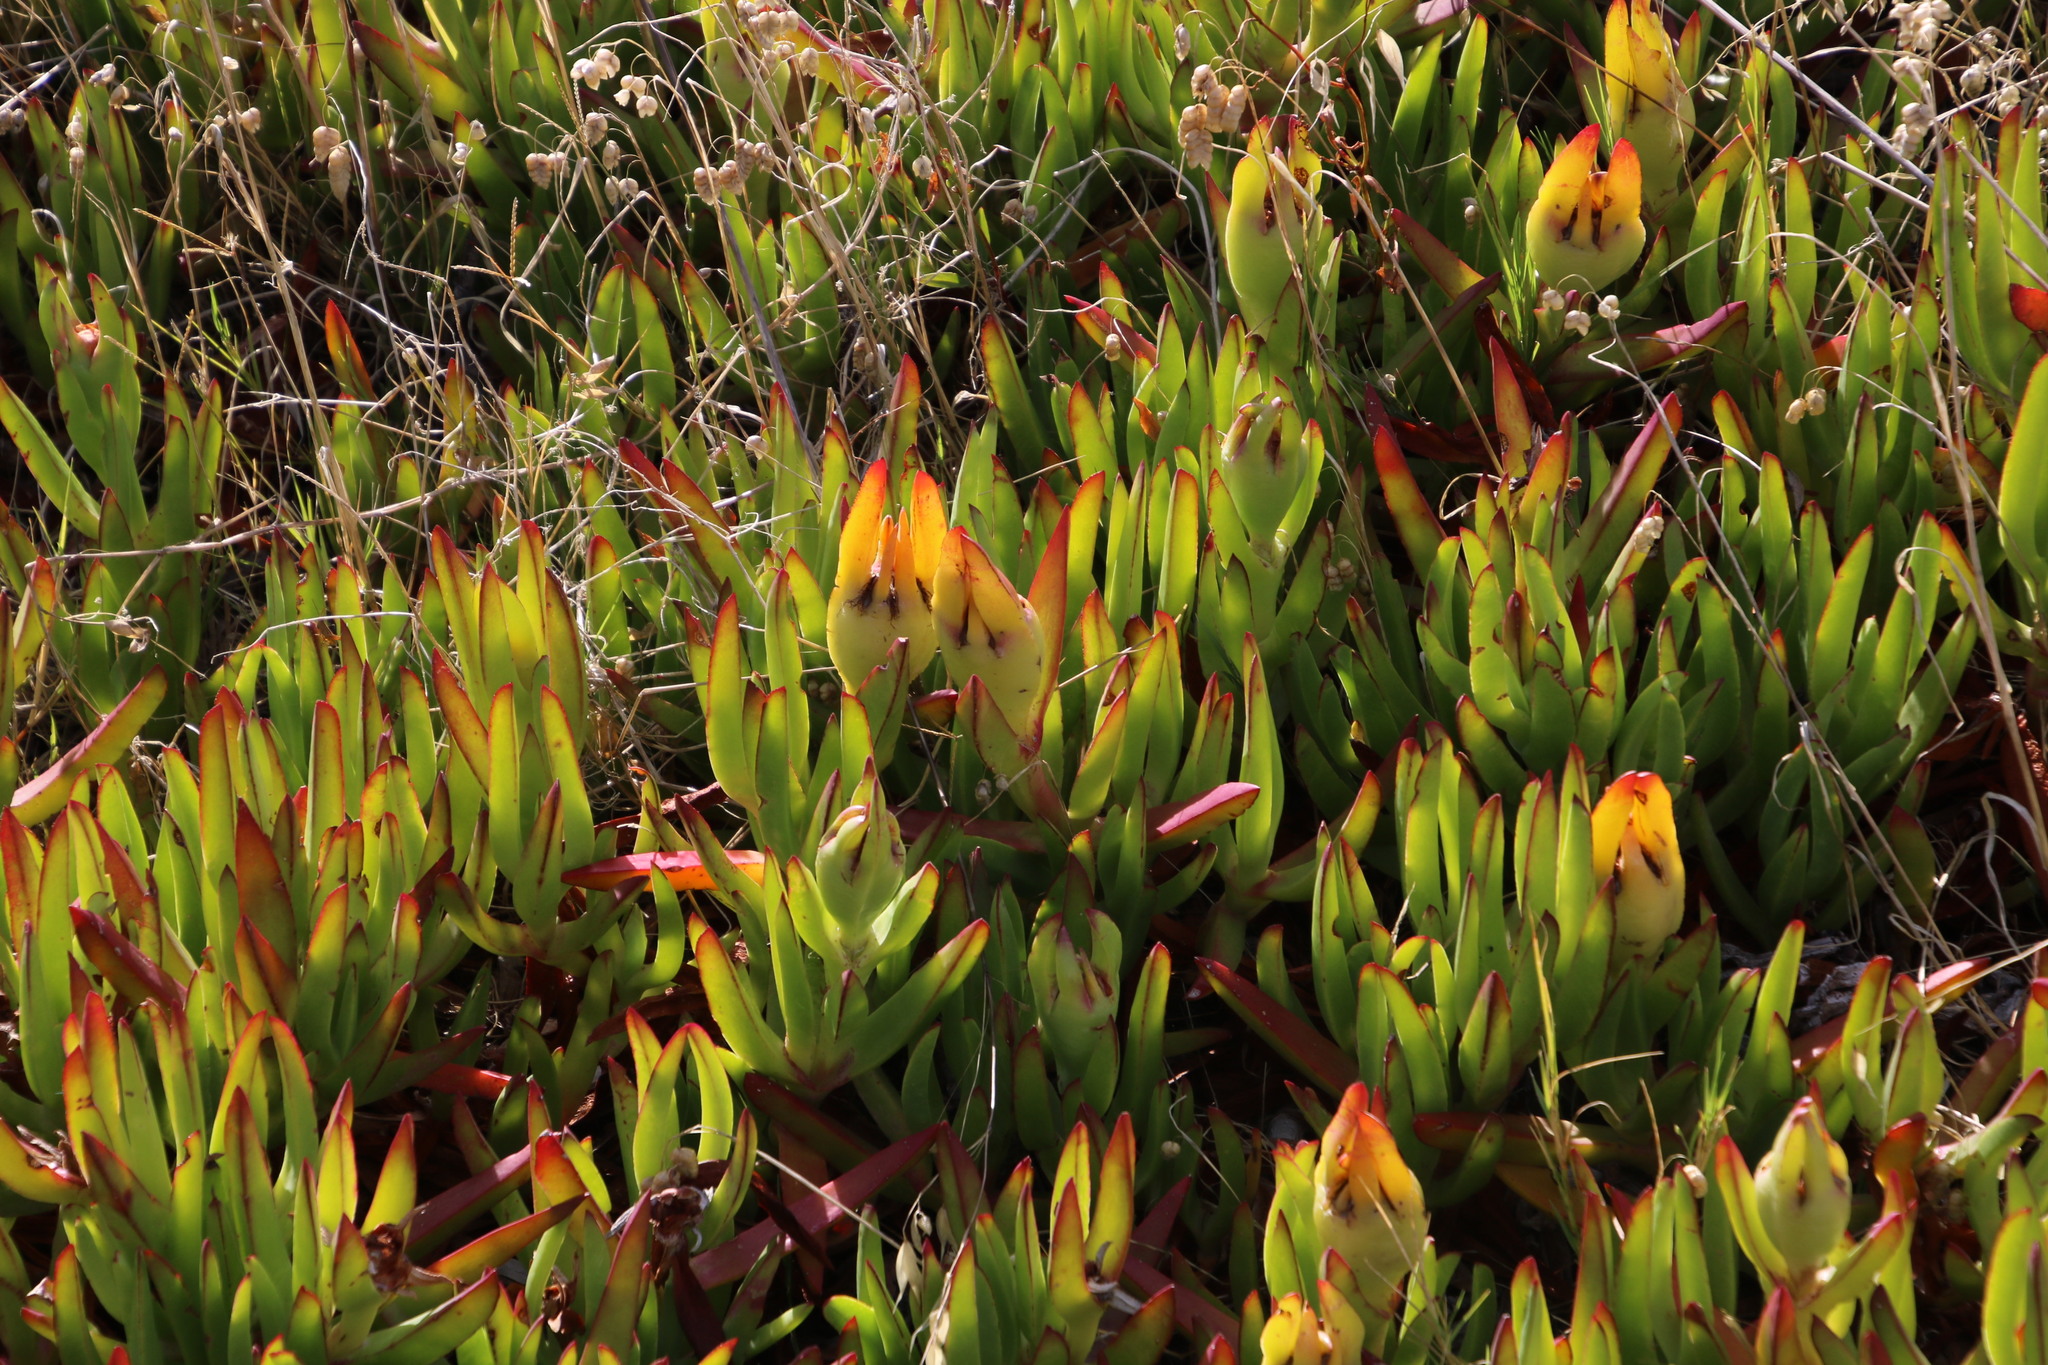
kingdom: Plantae
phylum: Tracheophyta
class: Magnoliopsida
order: Caryophyllales
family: Aizoaceae
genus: Carpobrotus
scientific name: Carpobrotus edulis
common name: Hottentot-fig
